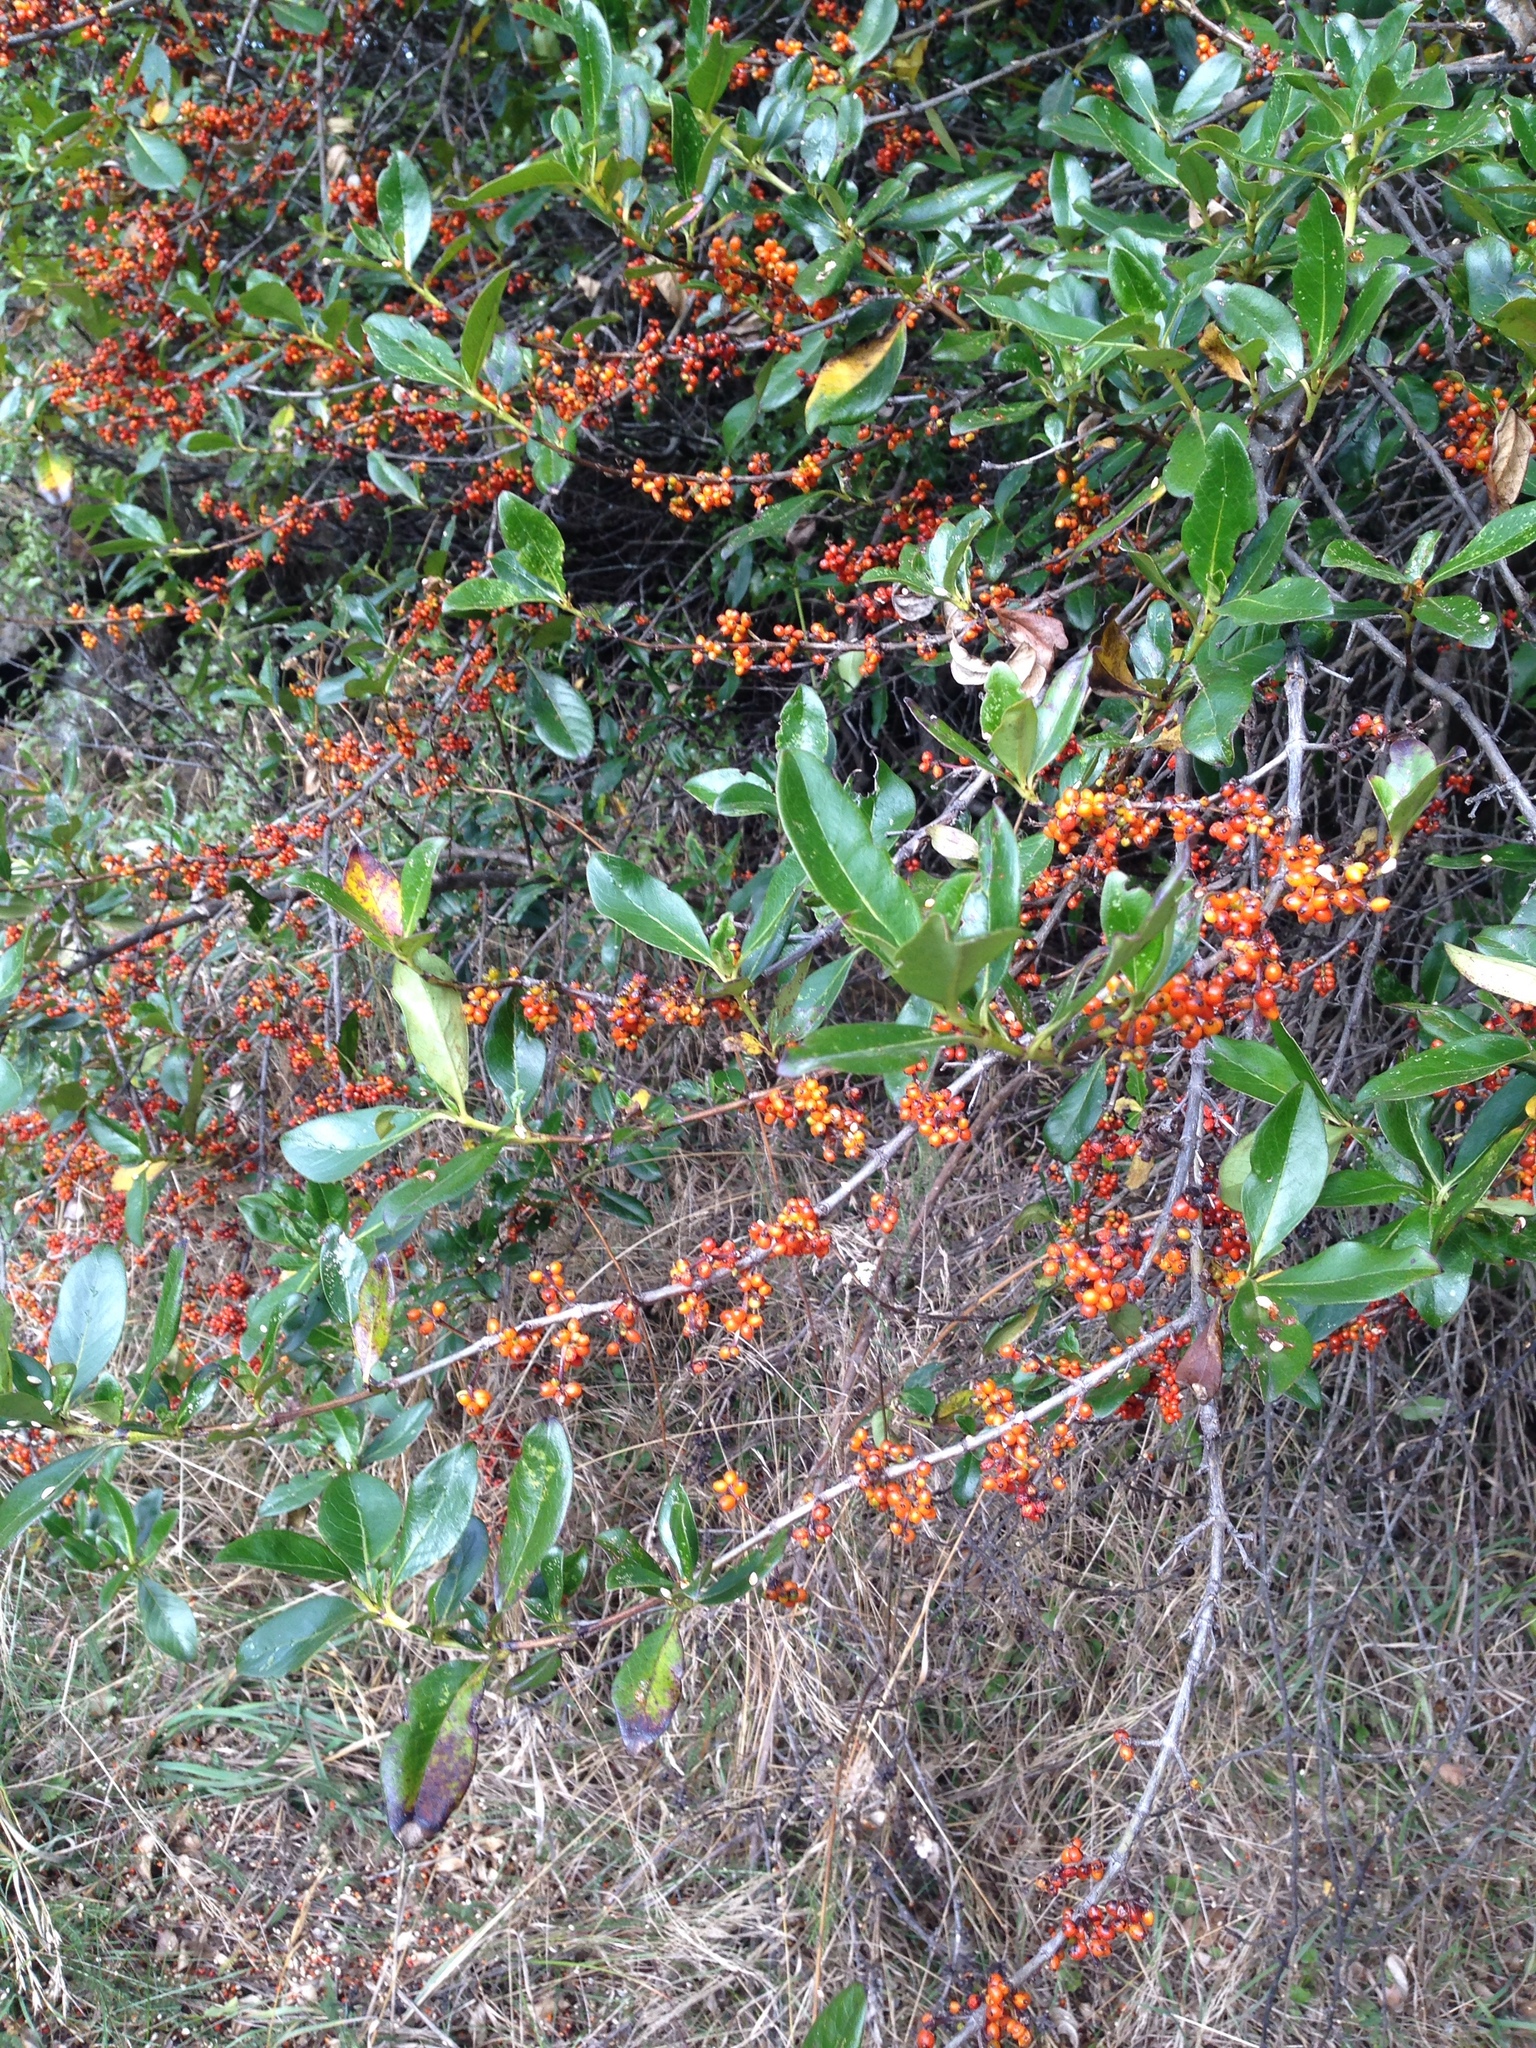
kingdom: Plantae
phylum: Tracheophyta
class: Magnoliopsida
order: Gentianales
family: Rubiaceae
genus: Coprosma
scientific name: Coprosma robusta
